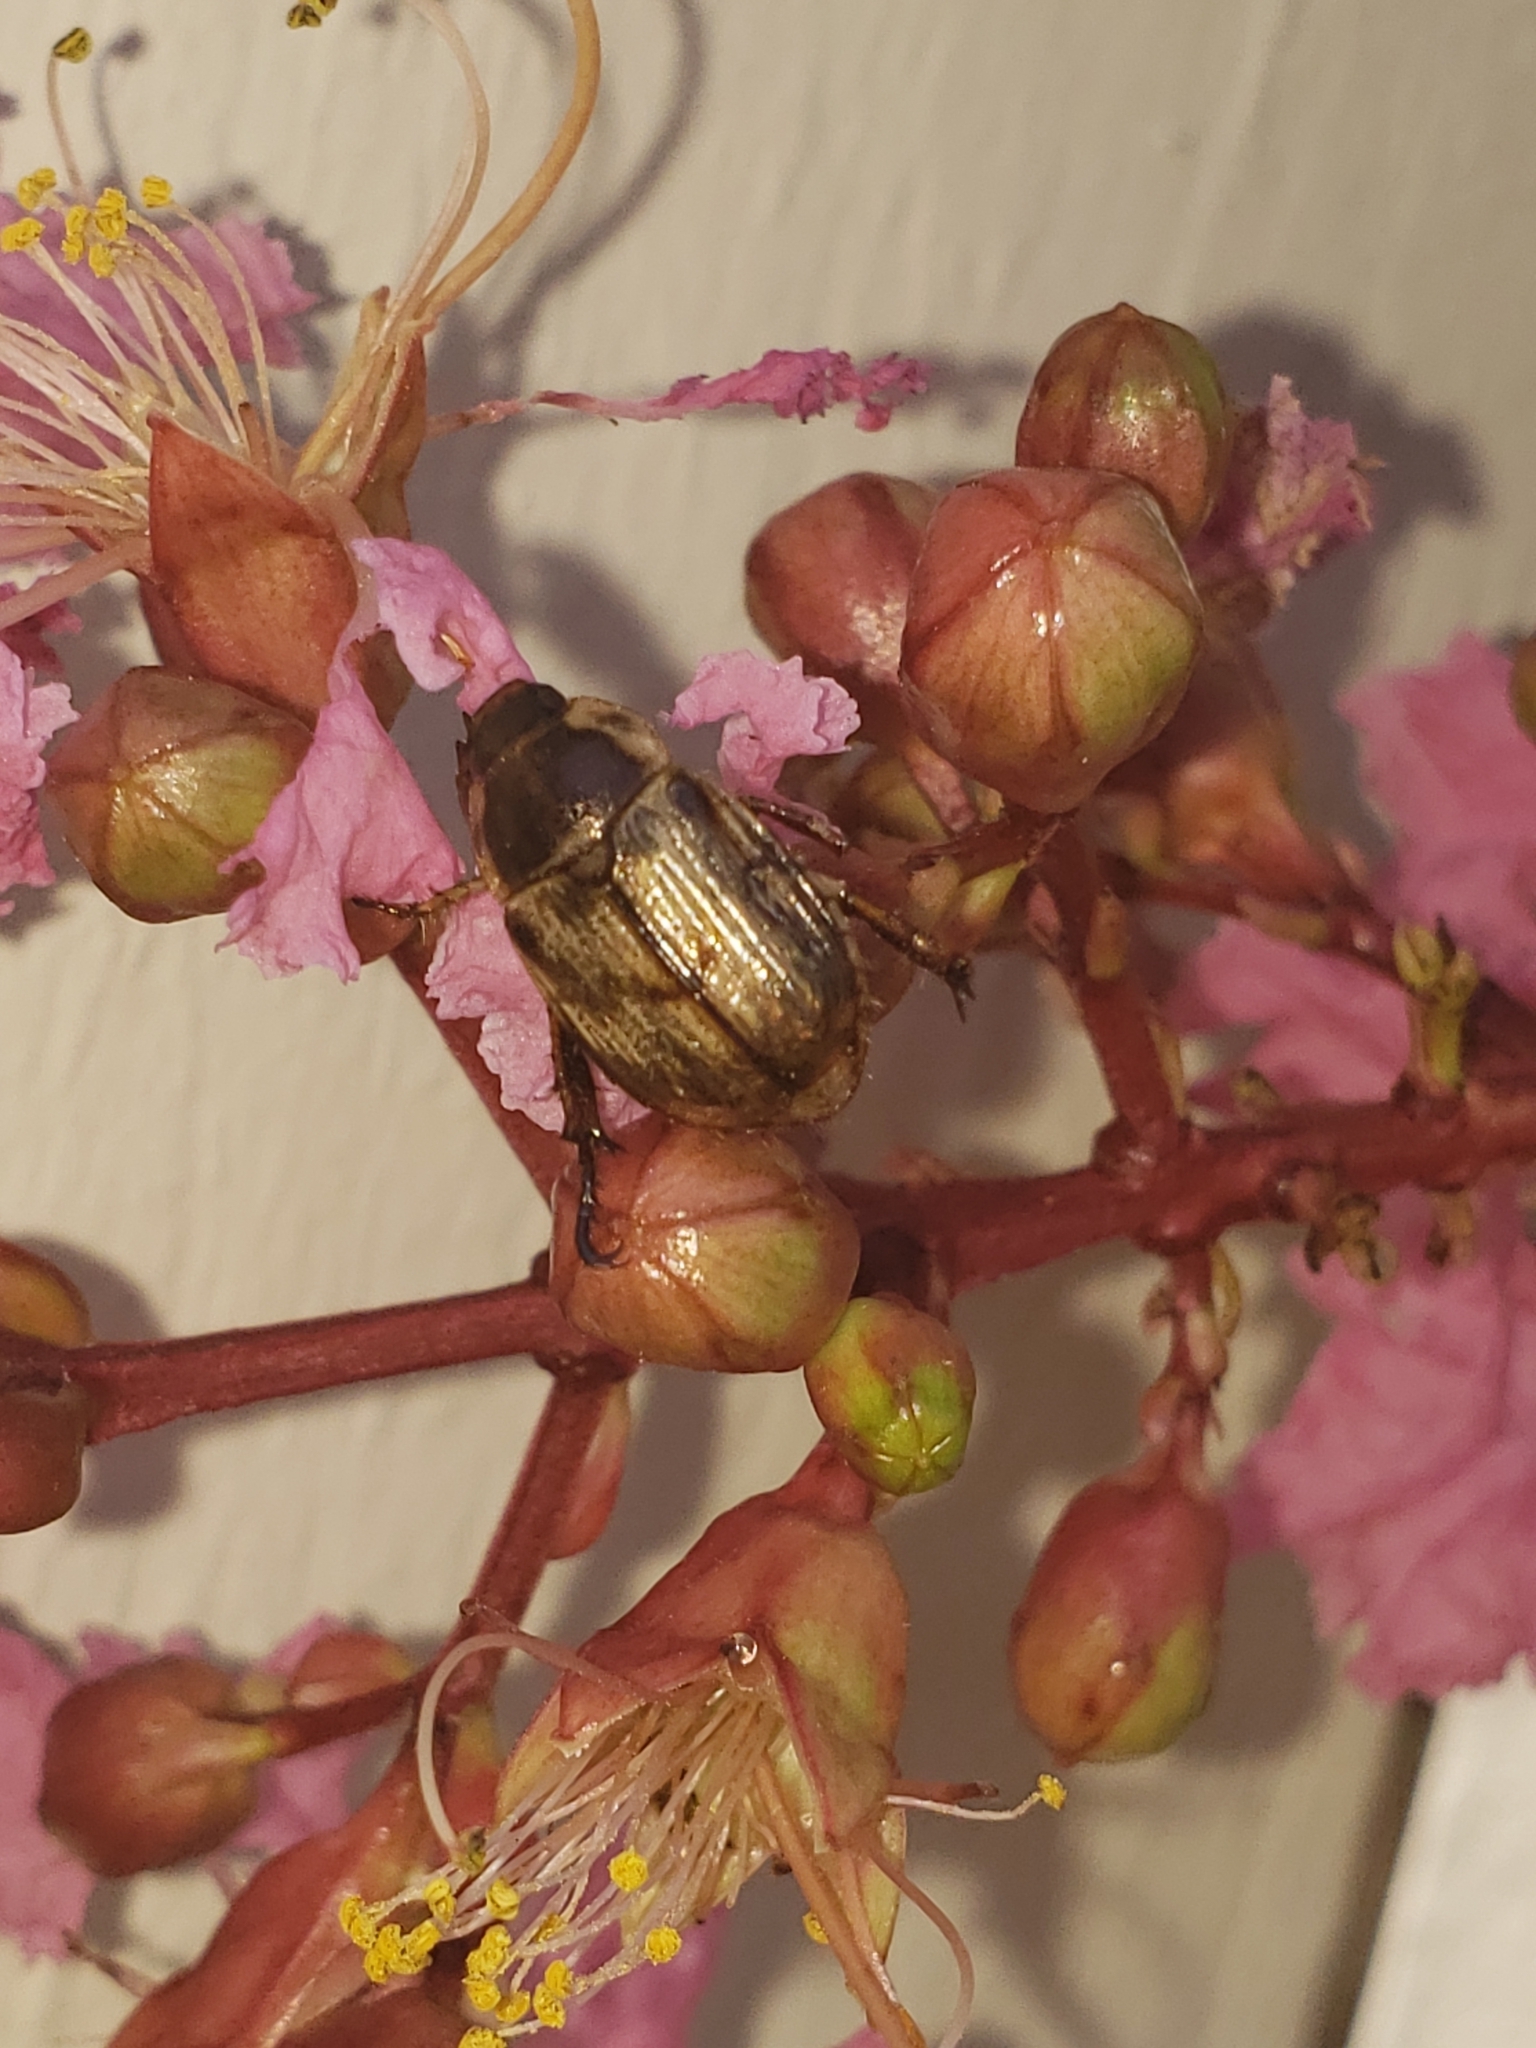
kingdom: Animalia
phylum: Arthropoda
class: Insecta
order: Coleoptera
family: Scarabaeidae
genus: Exomala
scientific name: Exomala orientalis
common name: Oriental beetle
